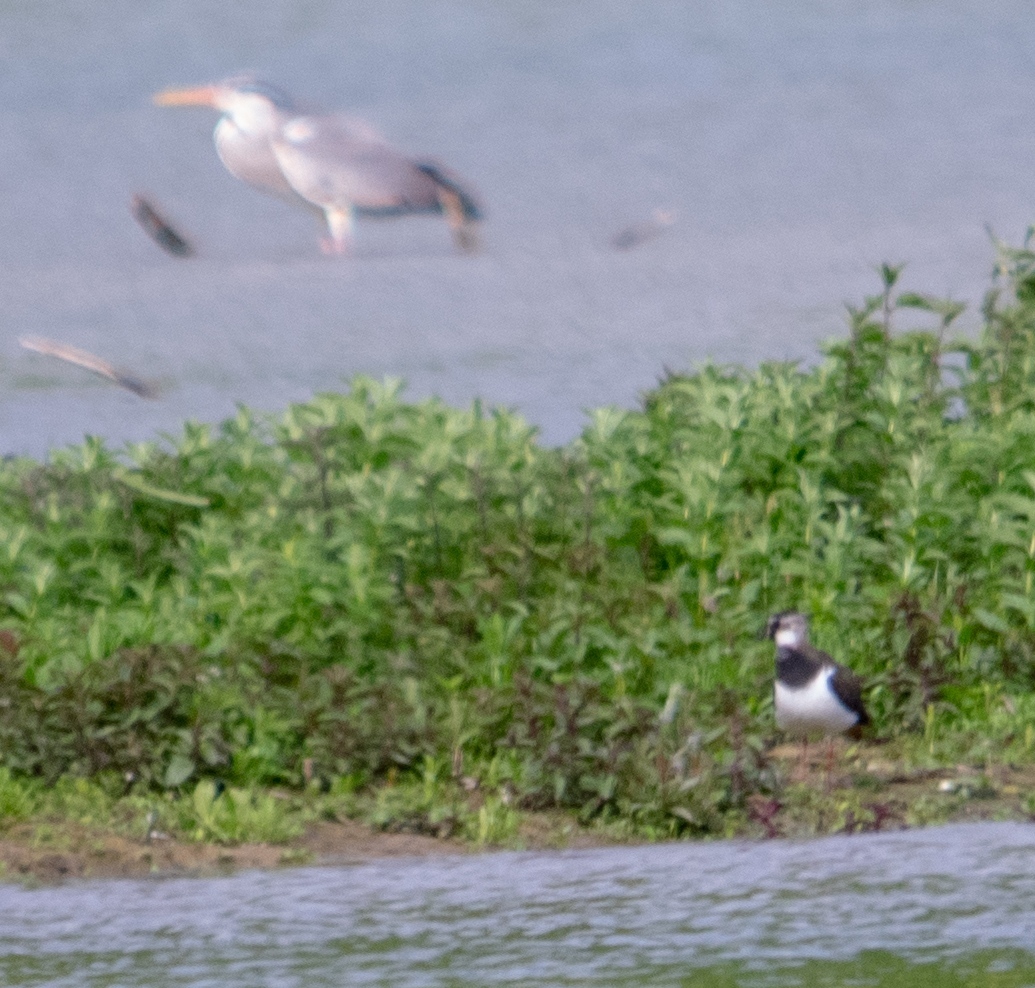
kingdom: Animalia
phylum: Chordata
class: Aves
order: Pelecaniformes
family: Ardeidae
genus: Ardea
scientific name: Ardea cinerea
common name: Grey heron
